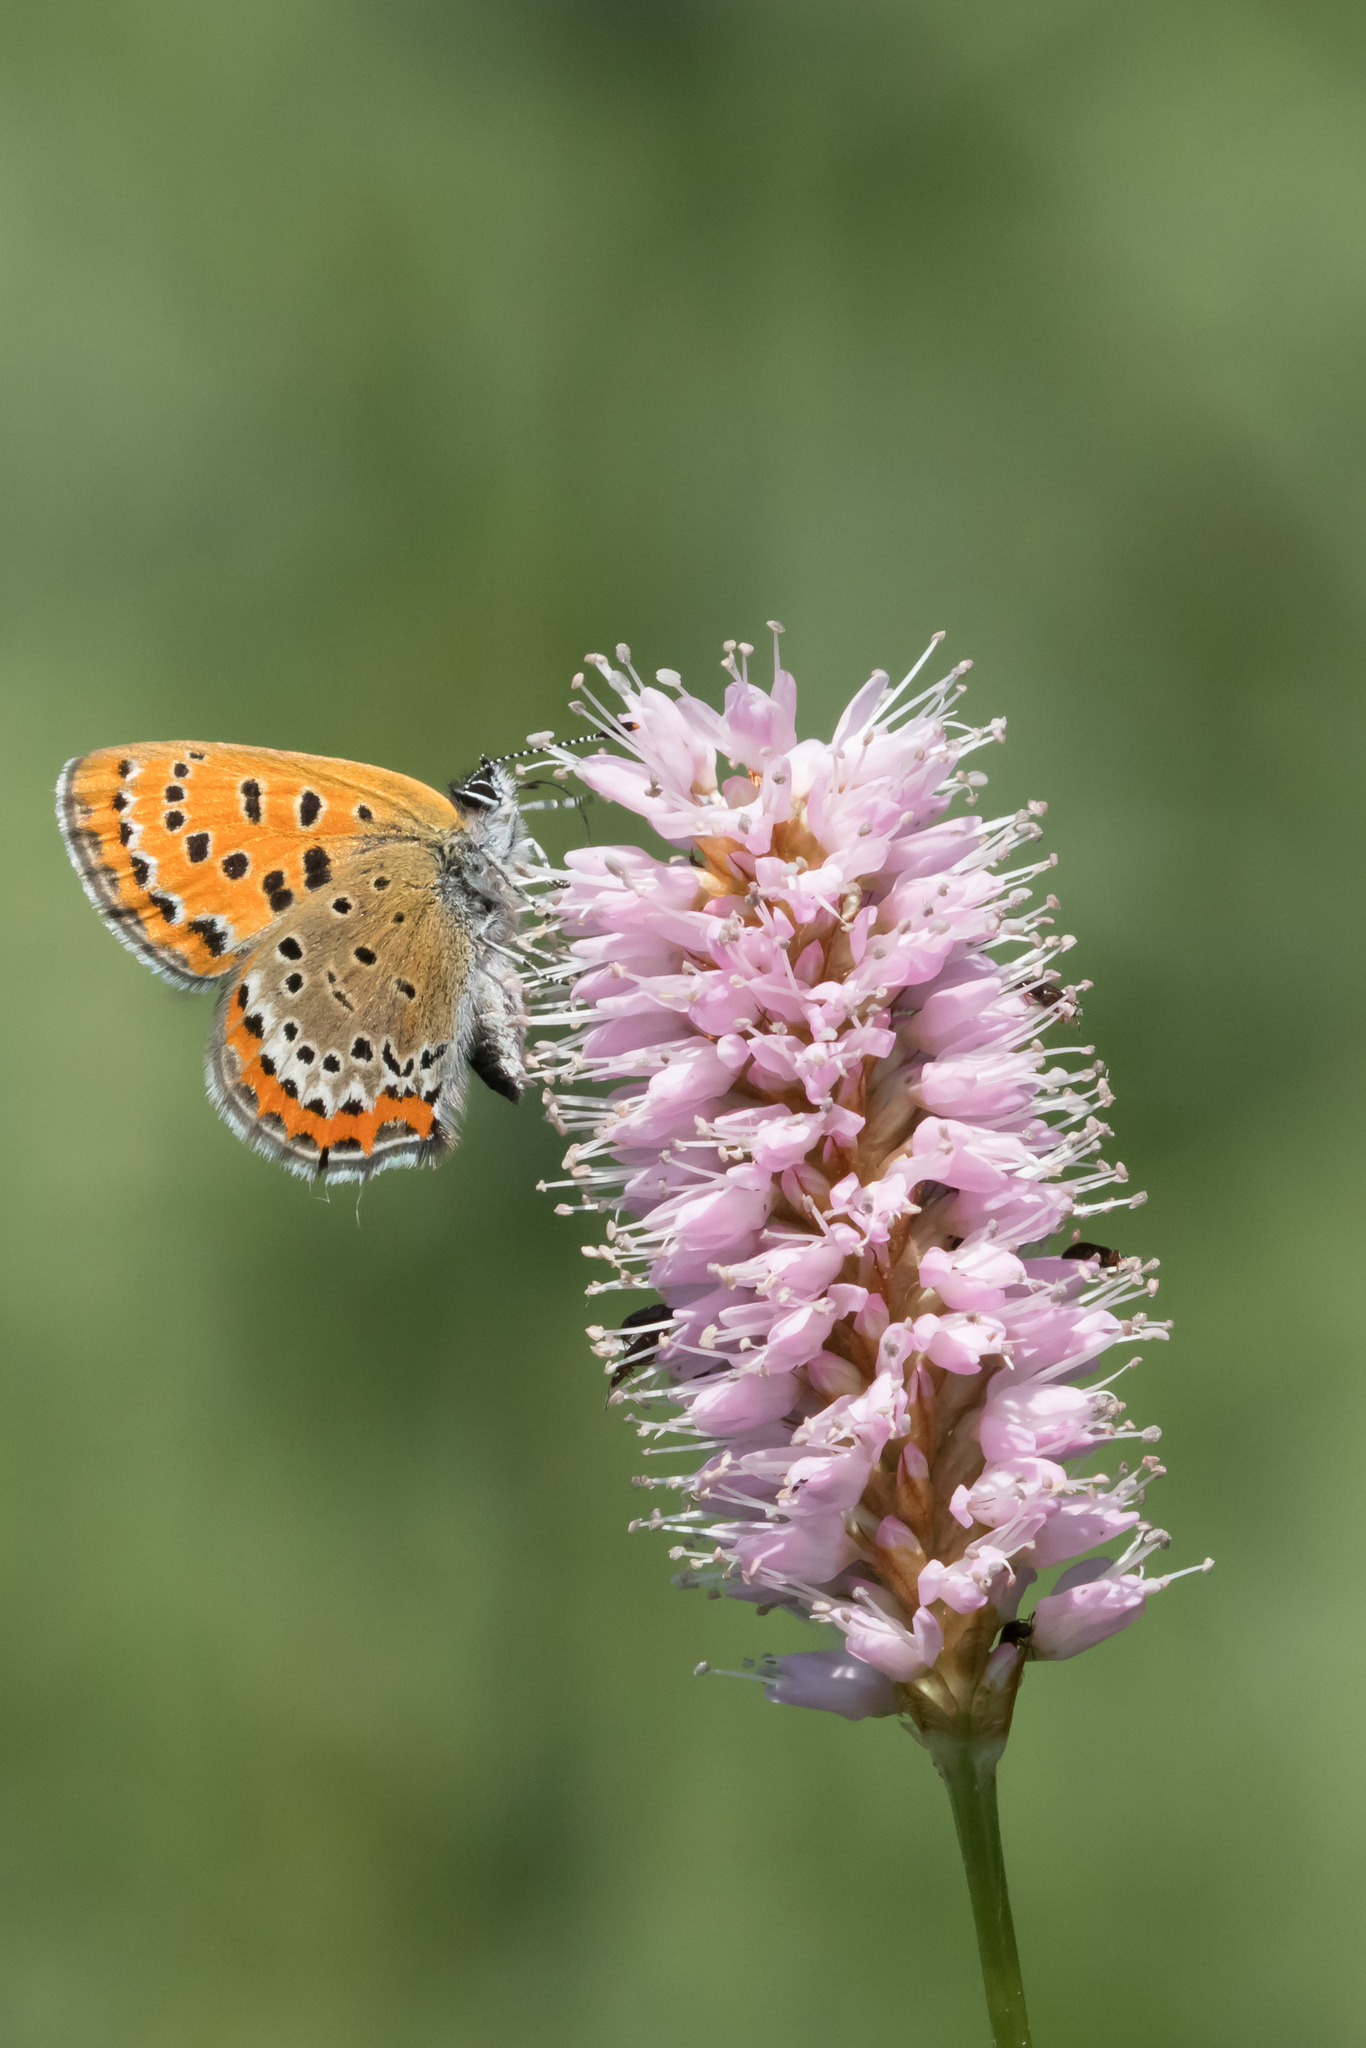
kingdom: Animalia
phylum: Arthropoda
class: Insecta
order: Lepidoptera
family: Lycaenidae
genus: Helleia
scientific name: Helleia helle
